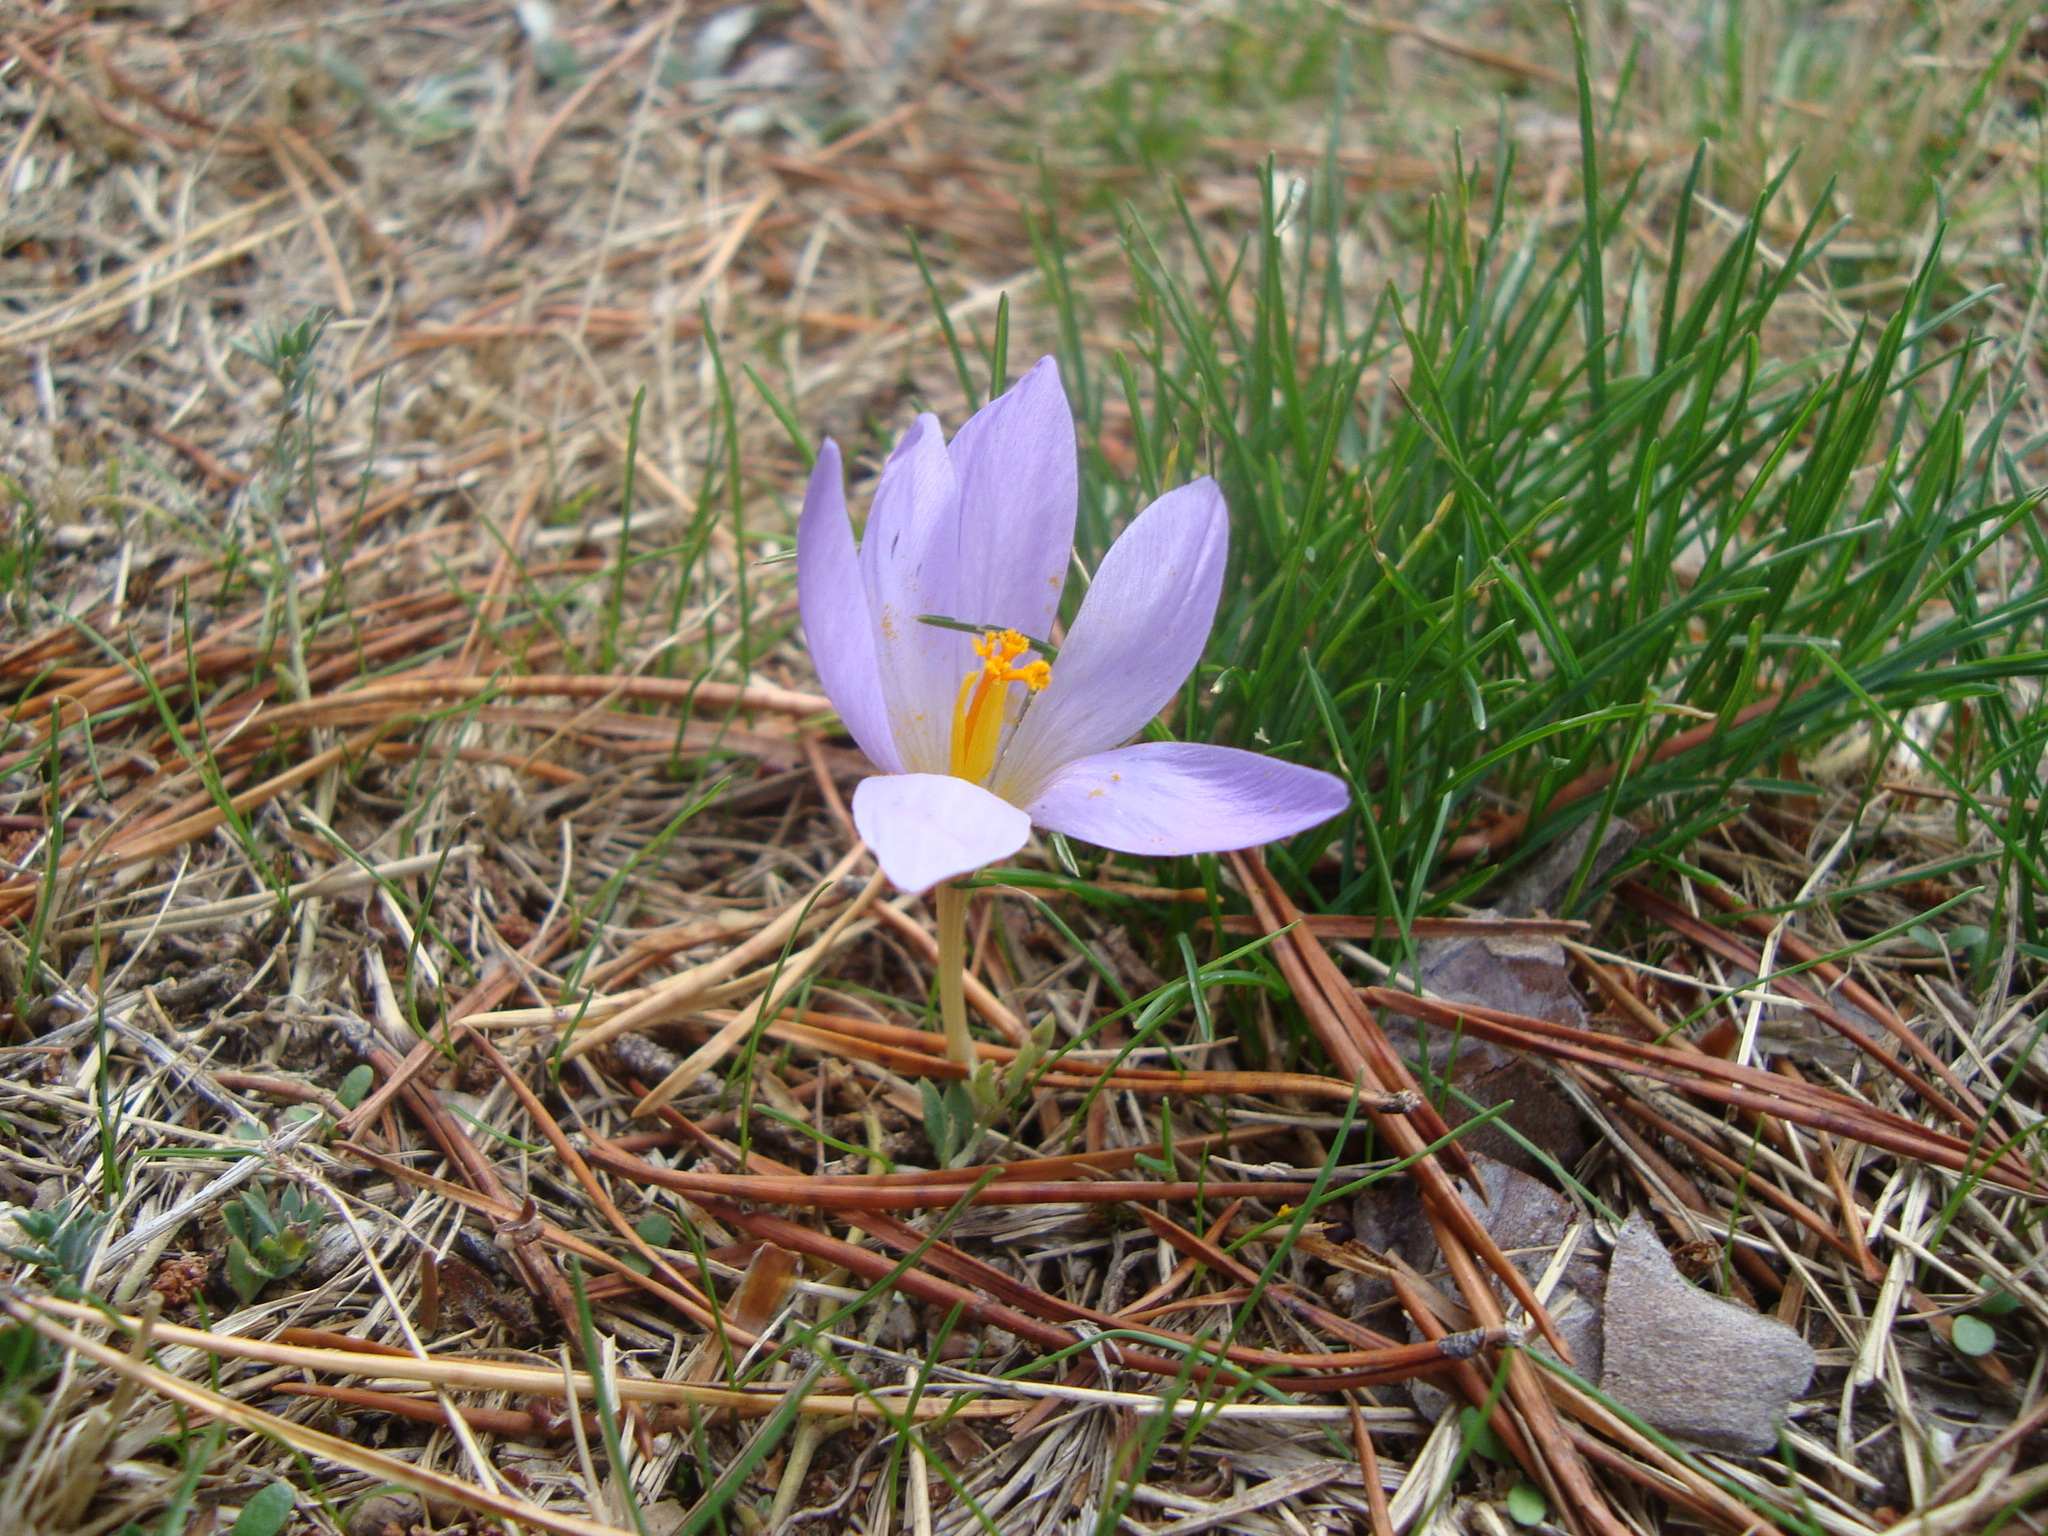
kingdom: Plantae
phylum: Tracheophyta
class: Liliopsida
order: Asparagales
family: Iridaceae
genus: Crocus
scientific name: Crocus serotinus
